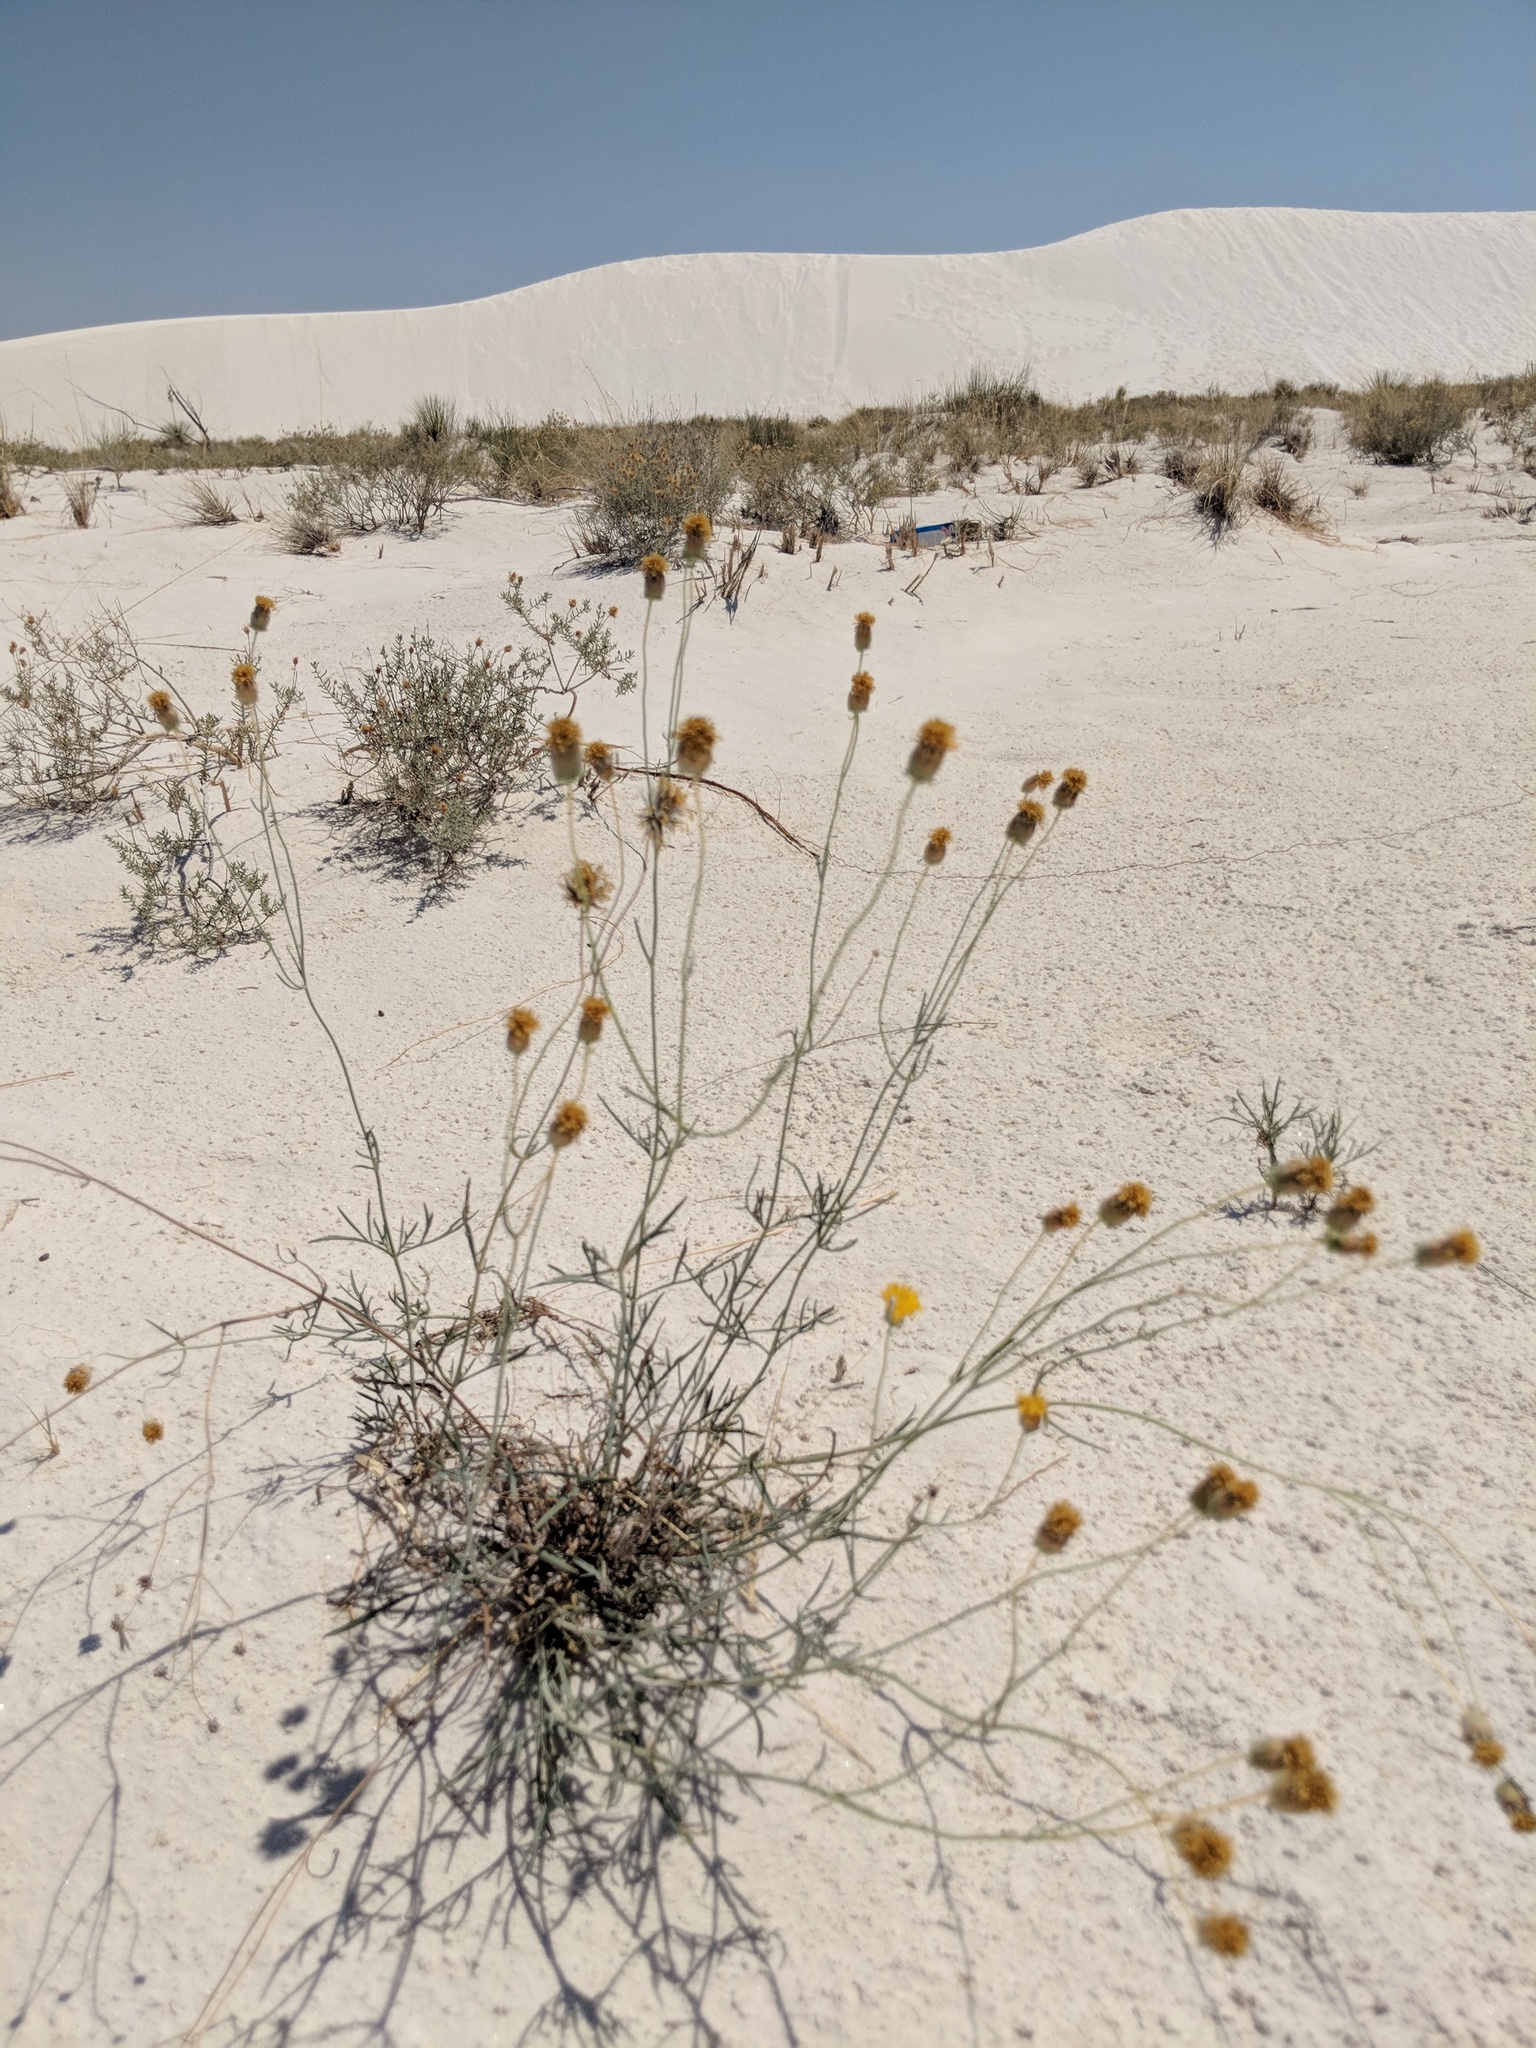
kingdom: Plantae
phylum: Tracheophyta
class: Magnoliopsida
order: Asterales
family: Asteraceae
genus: Thelesperma
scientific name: Thelesperma megapotamicum
